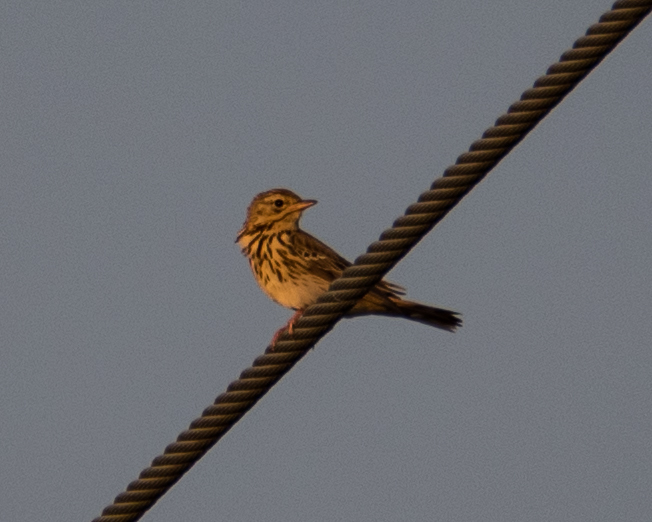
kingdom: Animalia
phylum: Chordata
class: Aves
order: Passeriformes
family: Motacillidae
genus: Anthus
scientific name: Anthus trivialis
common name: Tree pipit
